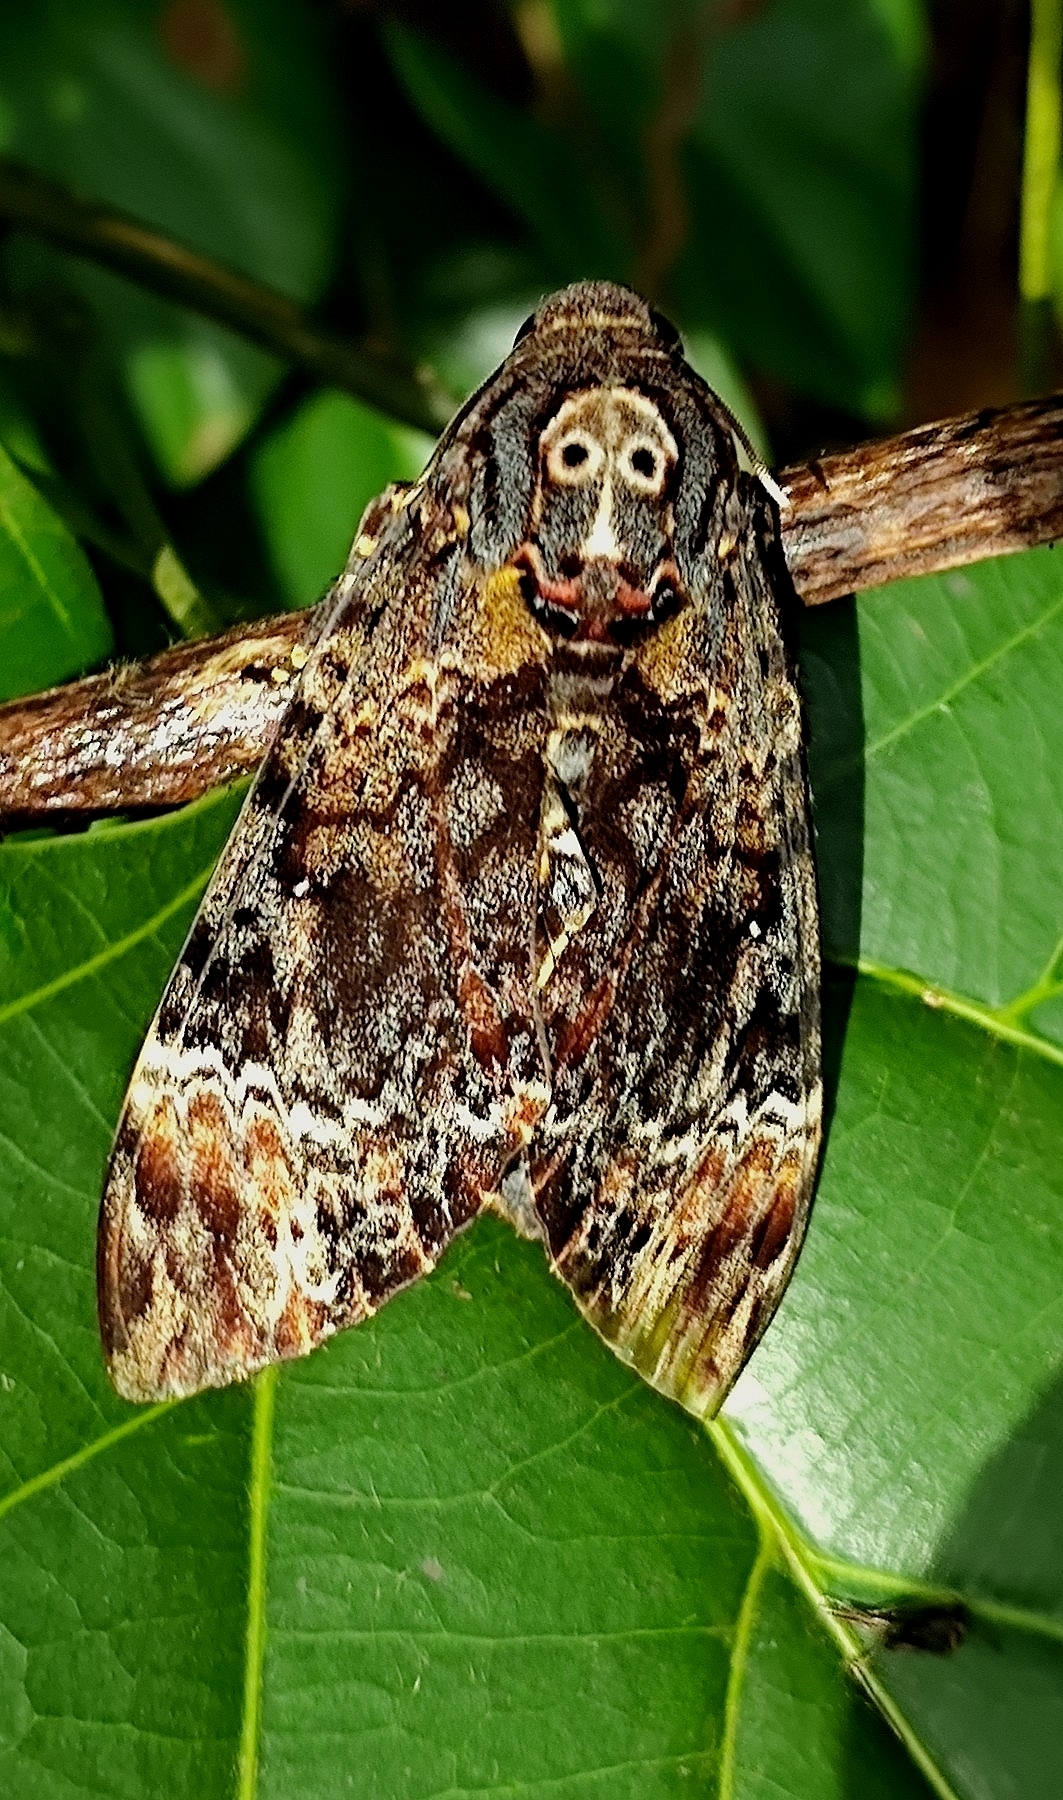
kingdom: Animalia
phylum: Arthropoda
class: Insecta
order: Lepidoptera
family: Sphingidae
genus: Acherontia
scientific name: Acherontia lachesis
